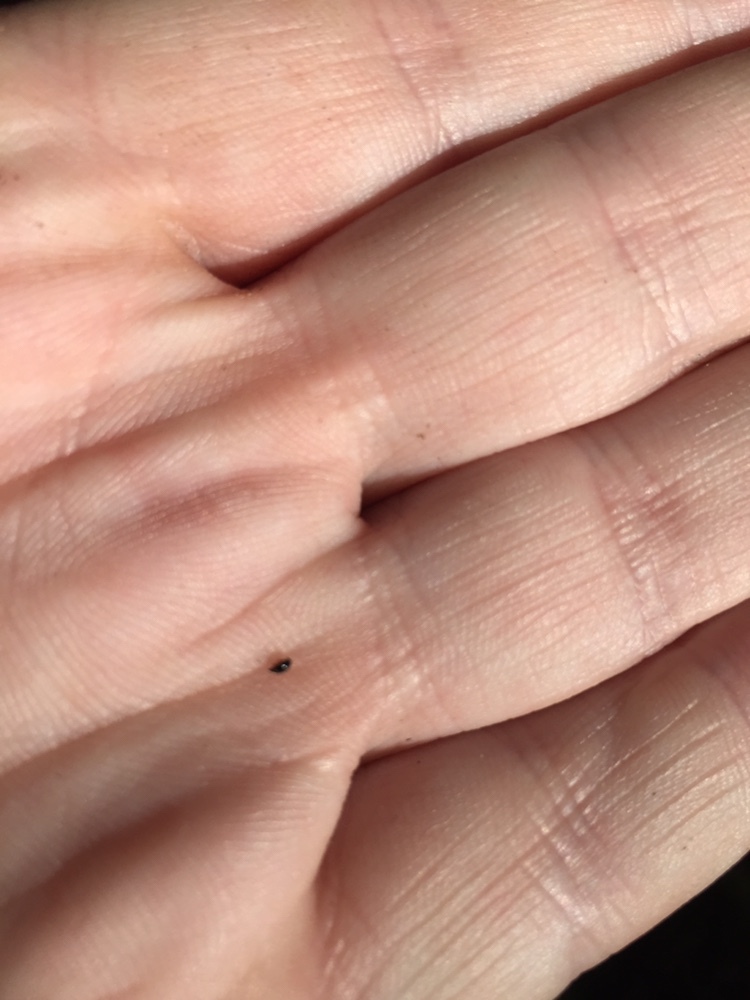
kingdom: Animalia
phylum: Arthropoda
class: Insecta
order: Coleoptera
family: Staphylinidae
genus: Scaphisoma
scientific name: Scaphisoma funereum
